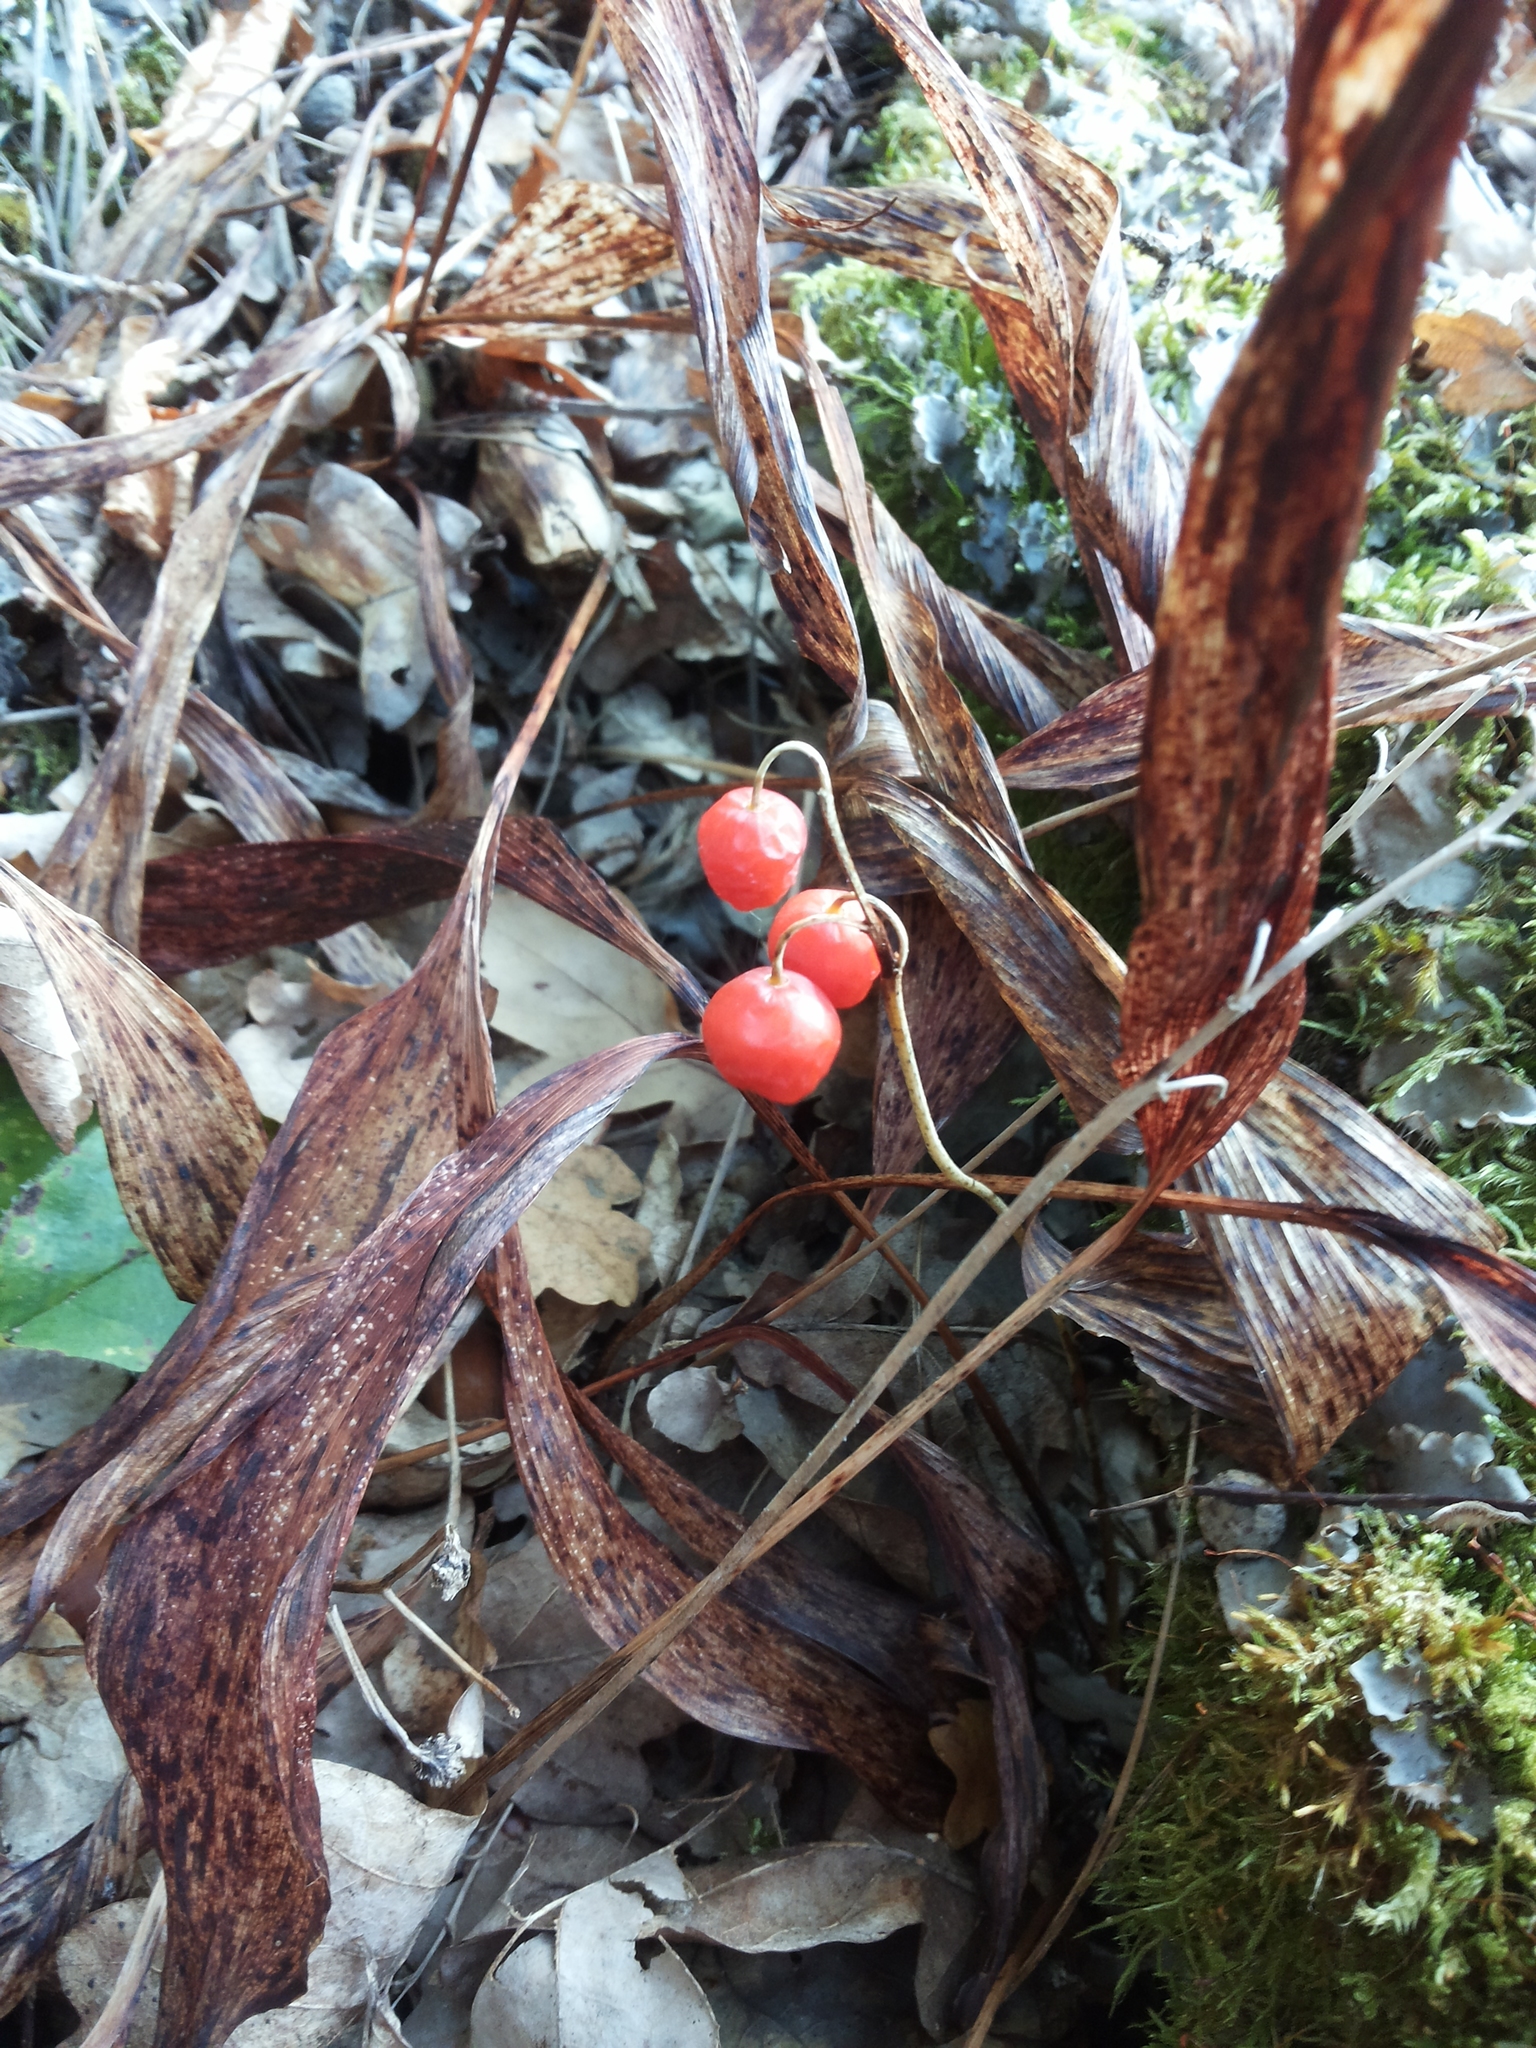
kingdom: Plantae
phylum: Tracheophyta
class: Liliopsida
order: Asparagales
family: Asparagaceae
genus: Convallaria
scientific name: Convallaria majalis
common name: Lily-of-the-valley
